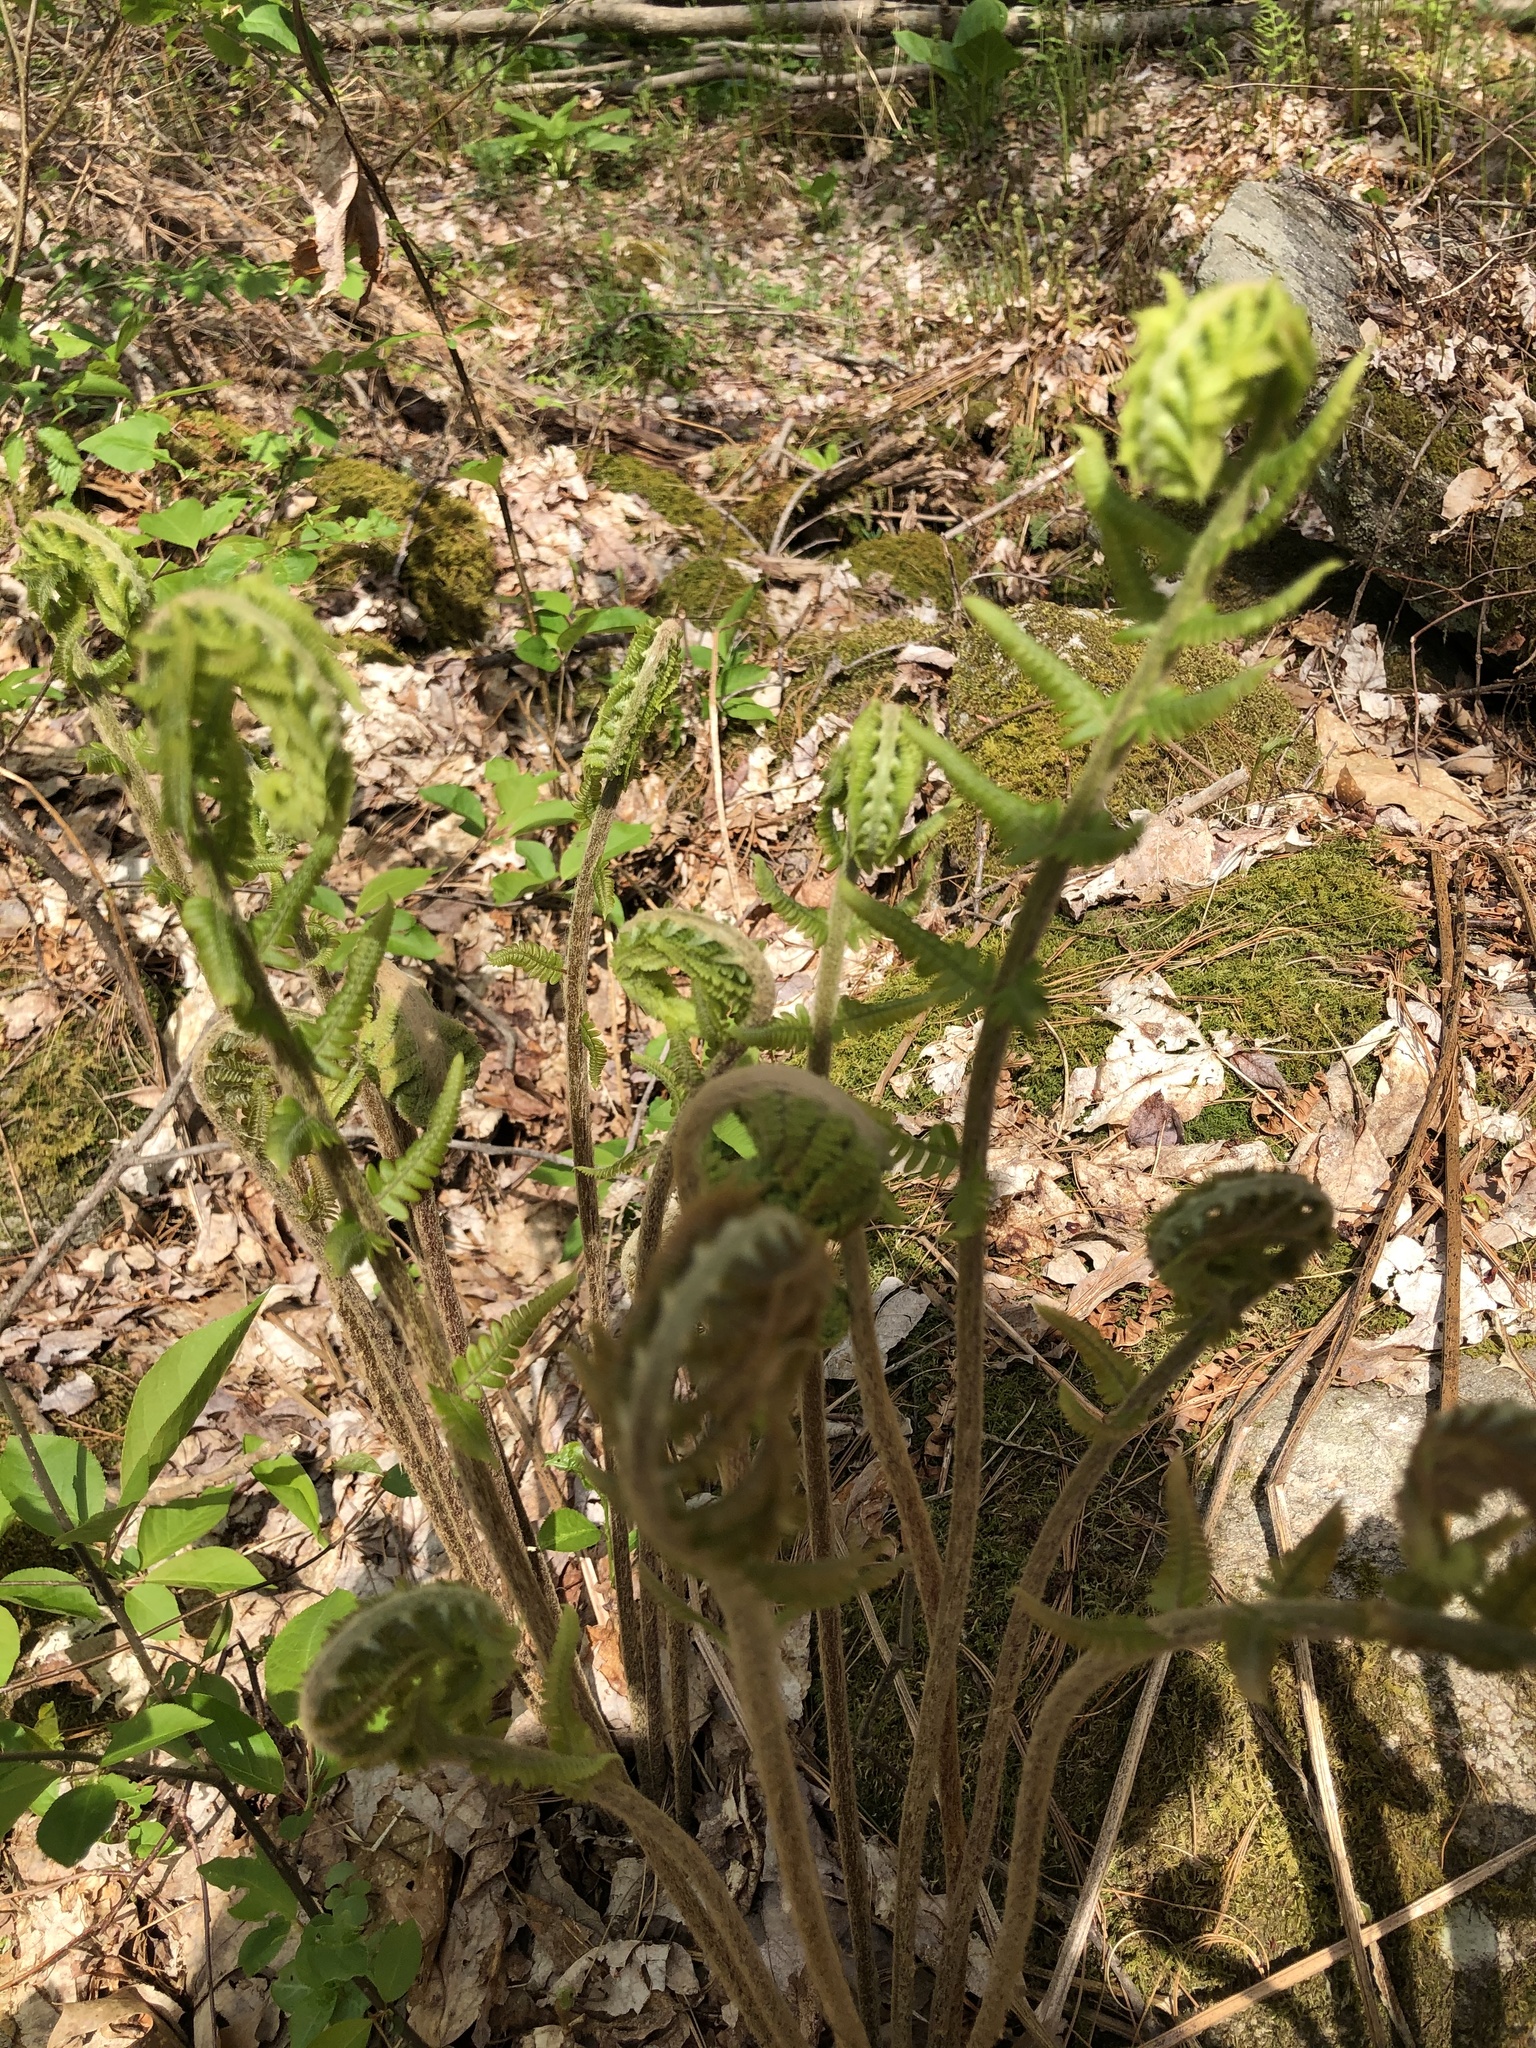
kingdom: Plantae
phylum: Tracheophyta
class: Polypodiopsida
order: Osmundales
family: Osmundaceae
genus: Osmundastrum
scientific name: Osmundastrum cinnamomeum
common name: Cinnamon fern
